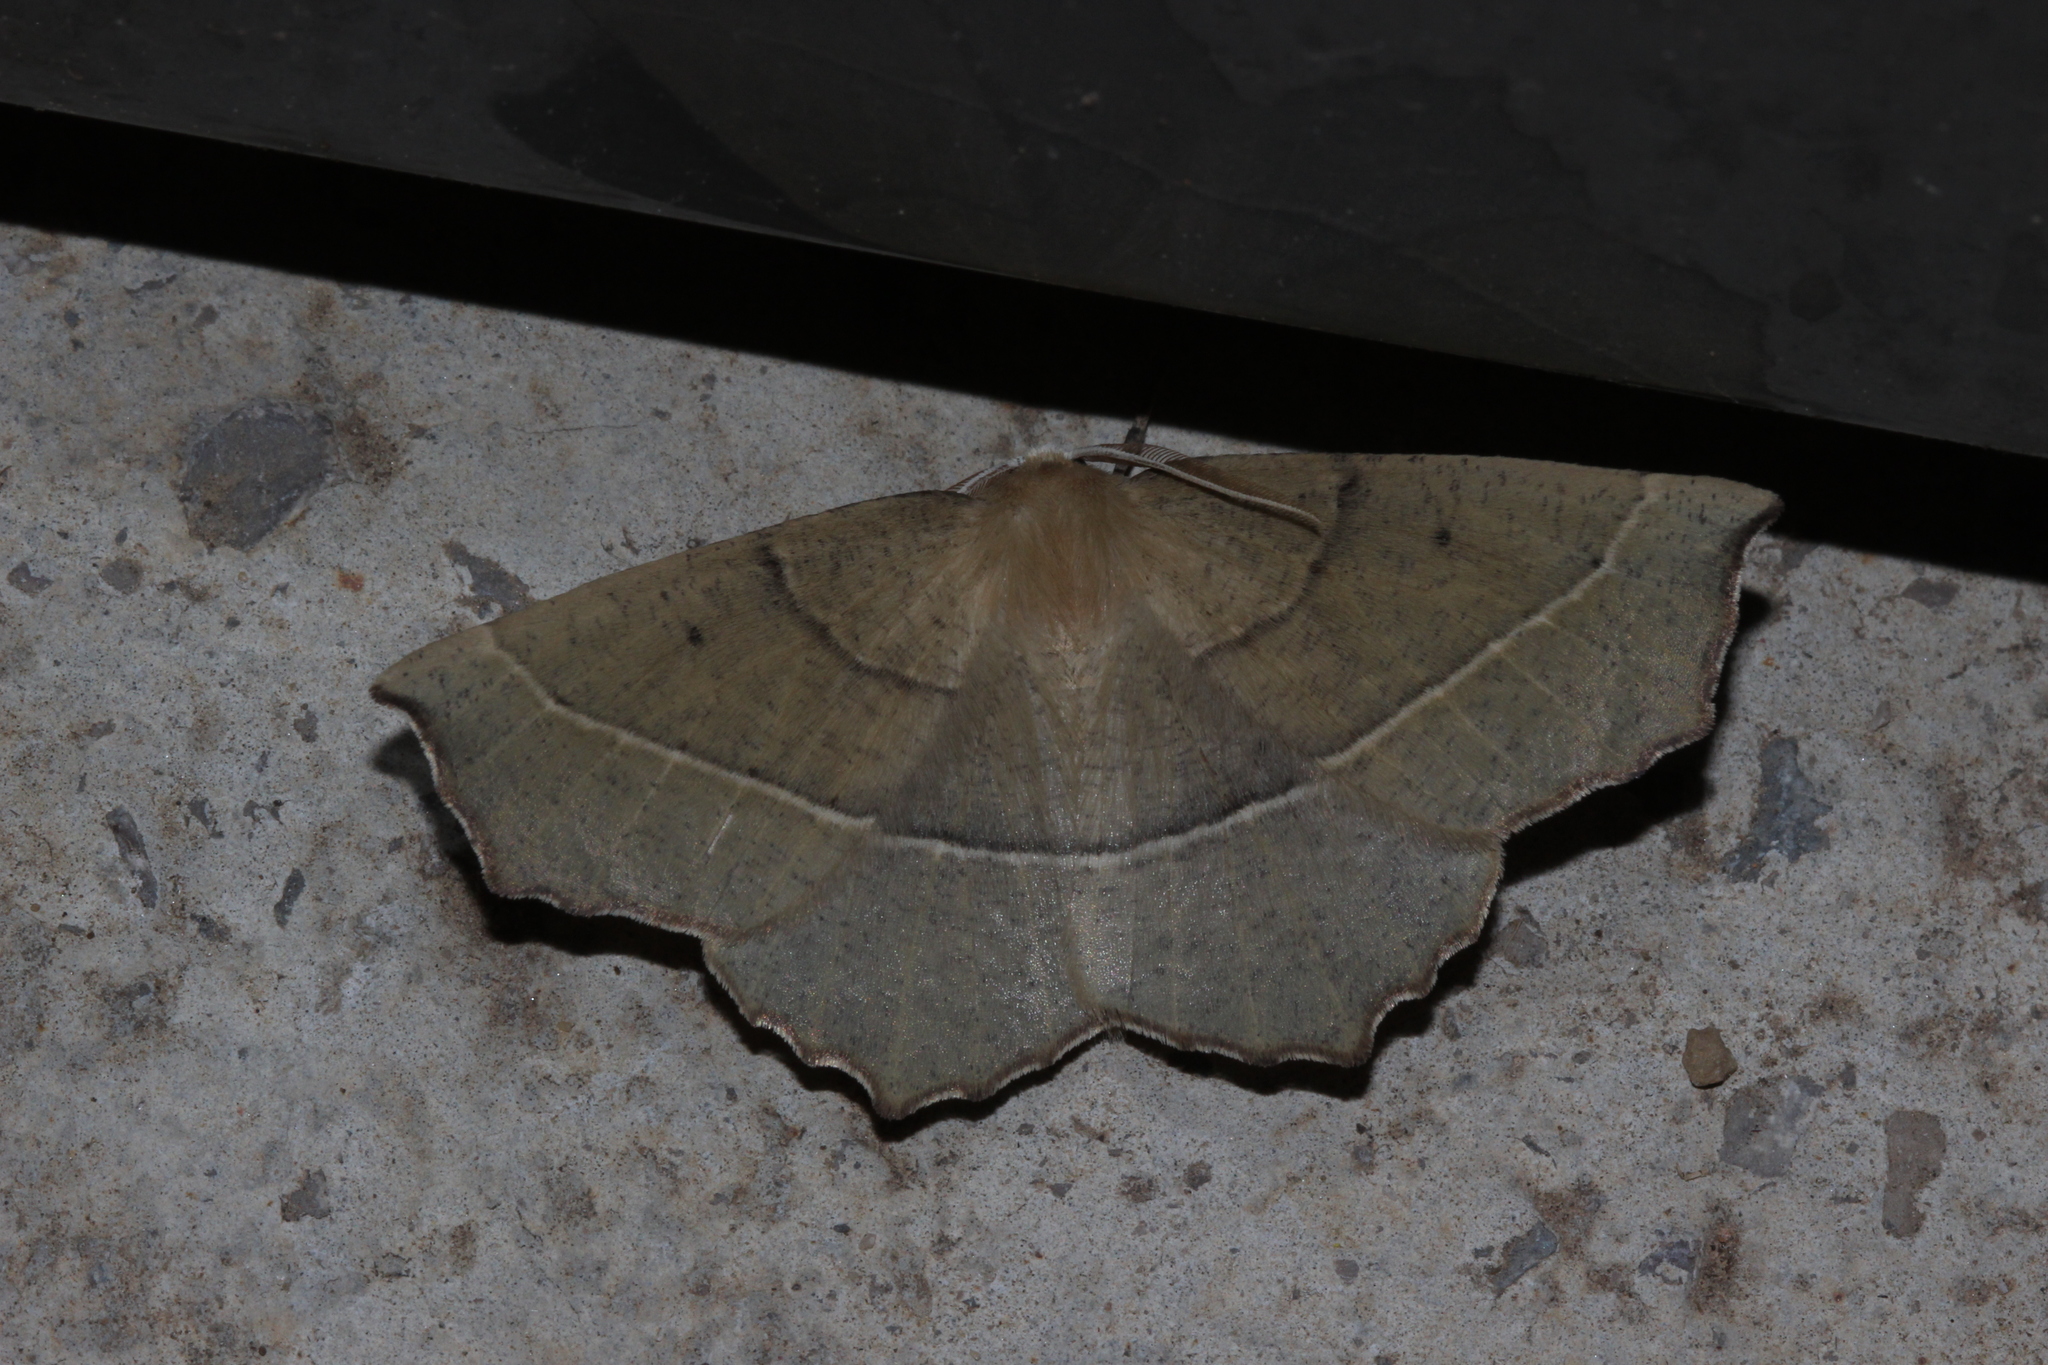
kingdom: Animalia
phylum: Arthropoda
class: Insecta
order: Lepidoptera
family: Geometridae
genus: Gerinia
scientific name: Gerinia honoraria
